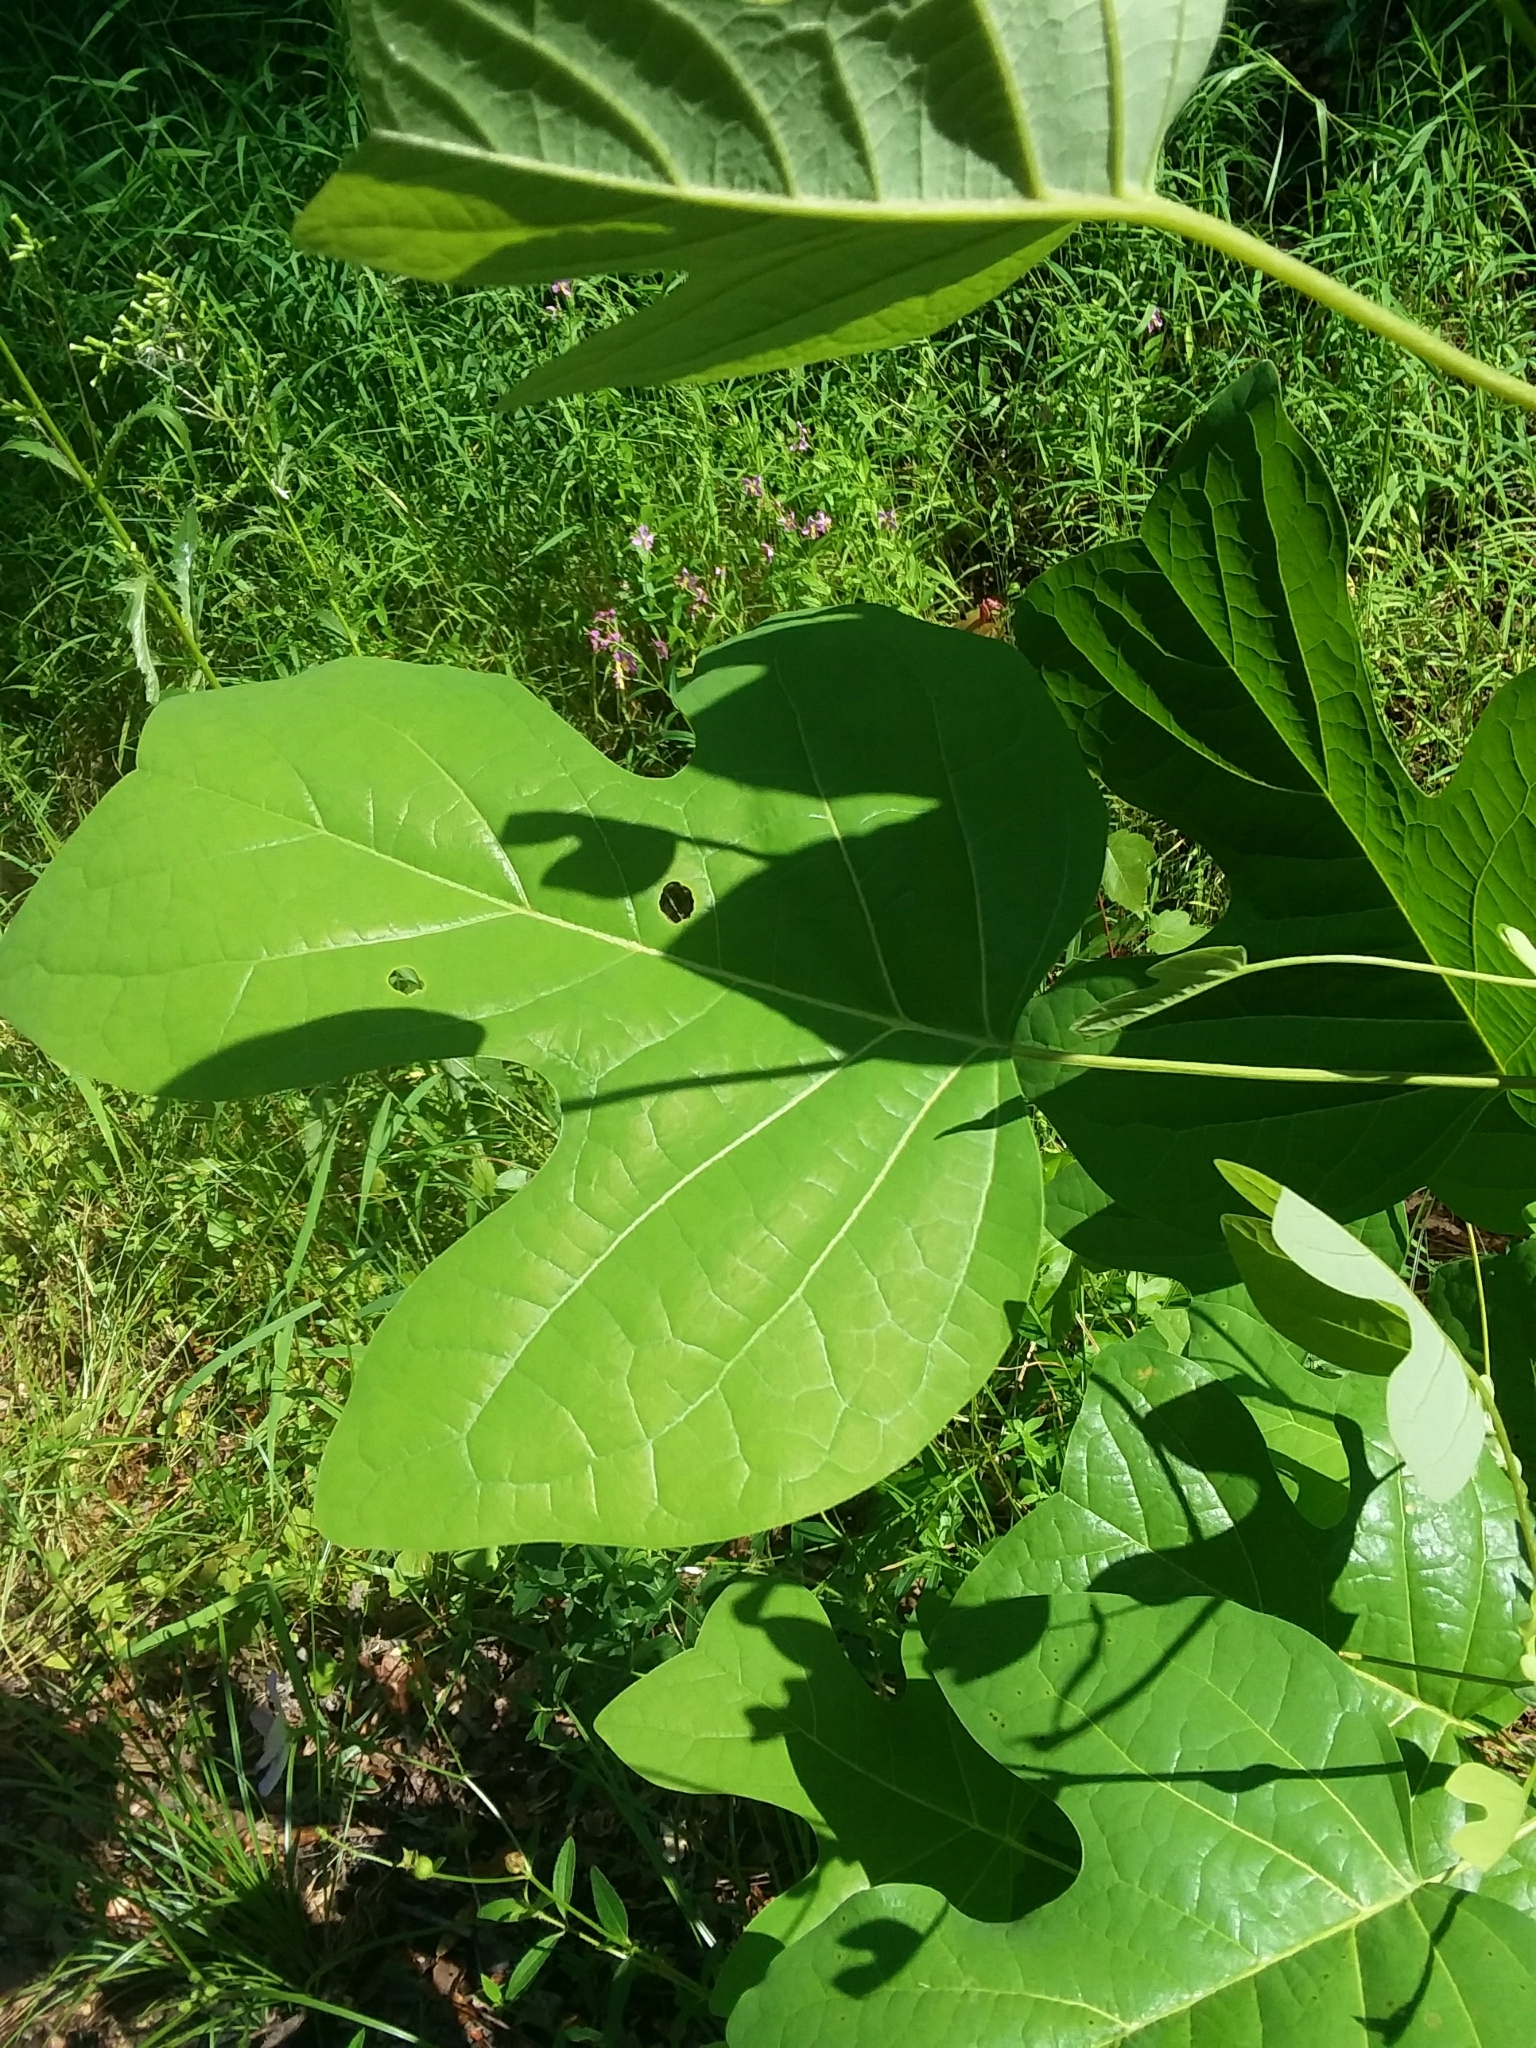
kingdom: Plantae
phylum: Tracheophyta
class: Magnoliopsida
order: Magnoliales
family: Magnoliaceae
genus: Liriodendron
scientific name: Liriodendron tulipifera
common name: Tulip tree
